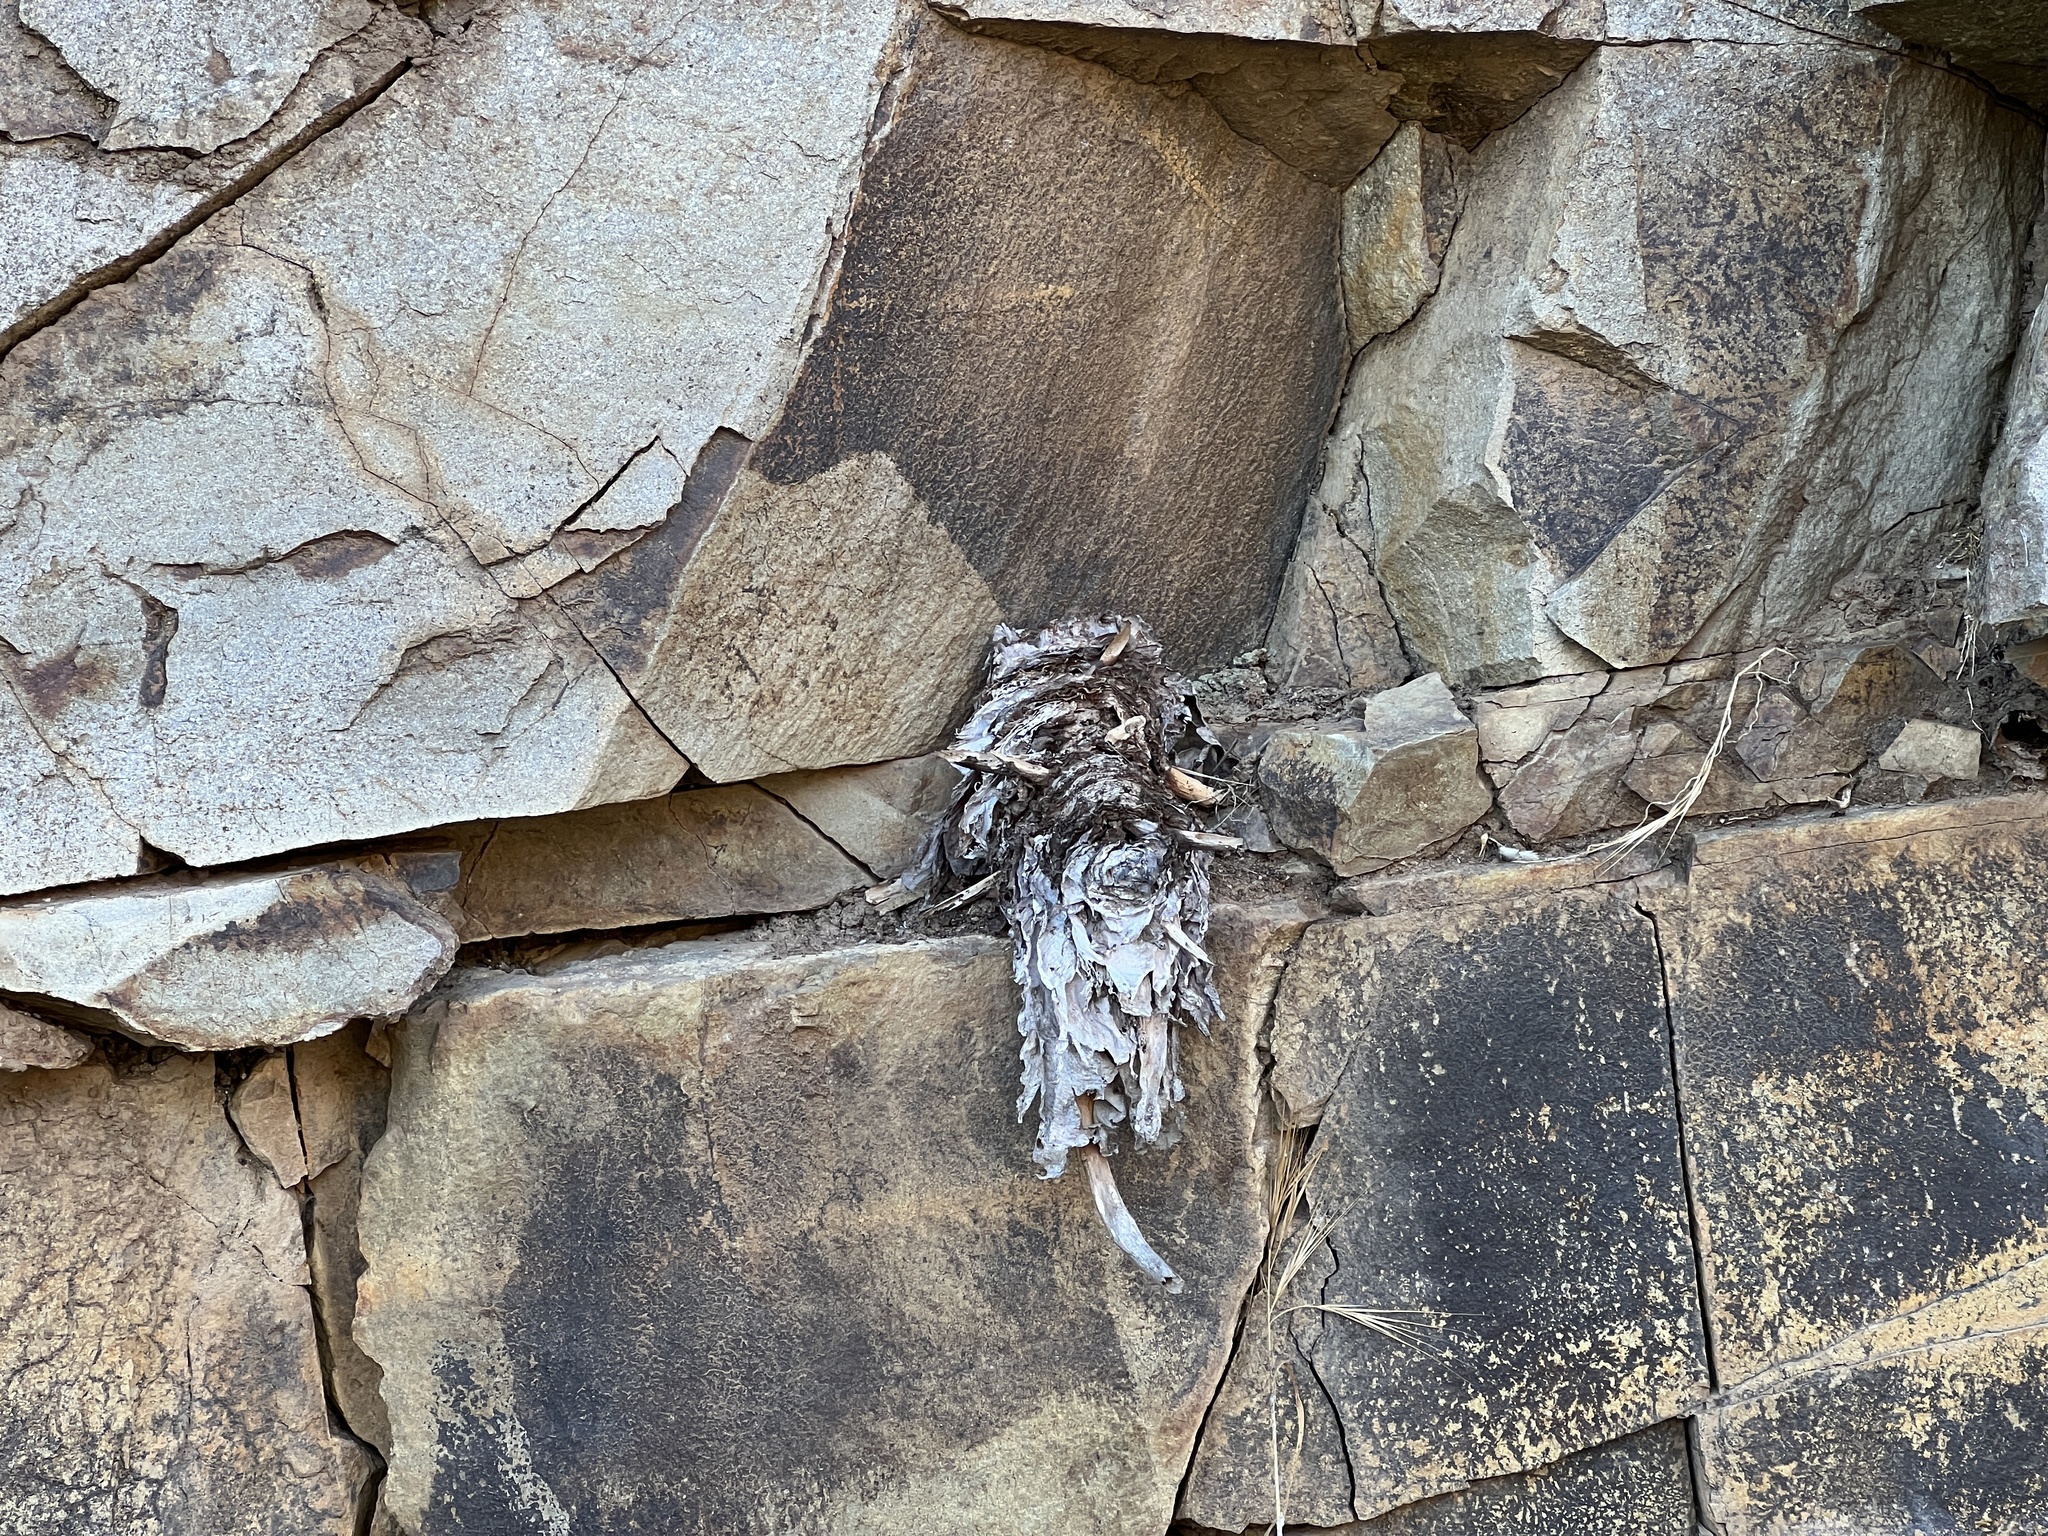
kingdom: Plantae
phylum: Tracheophyta
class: Magnoliopsida
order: Saxifragales
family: Crassulaceae
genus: Dudleya
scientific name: Dudleya pulverulenta
